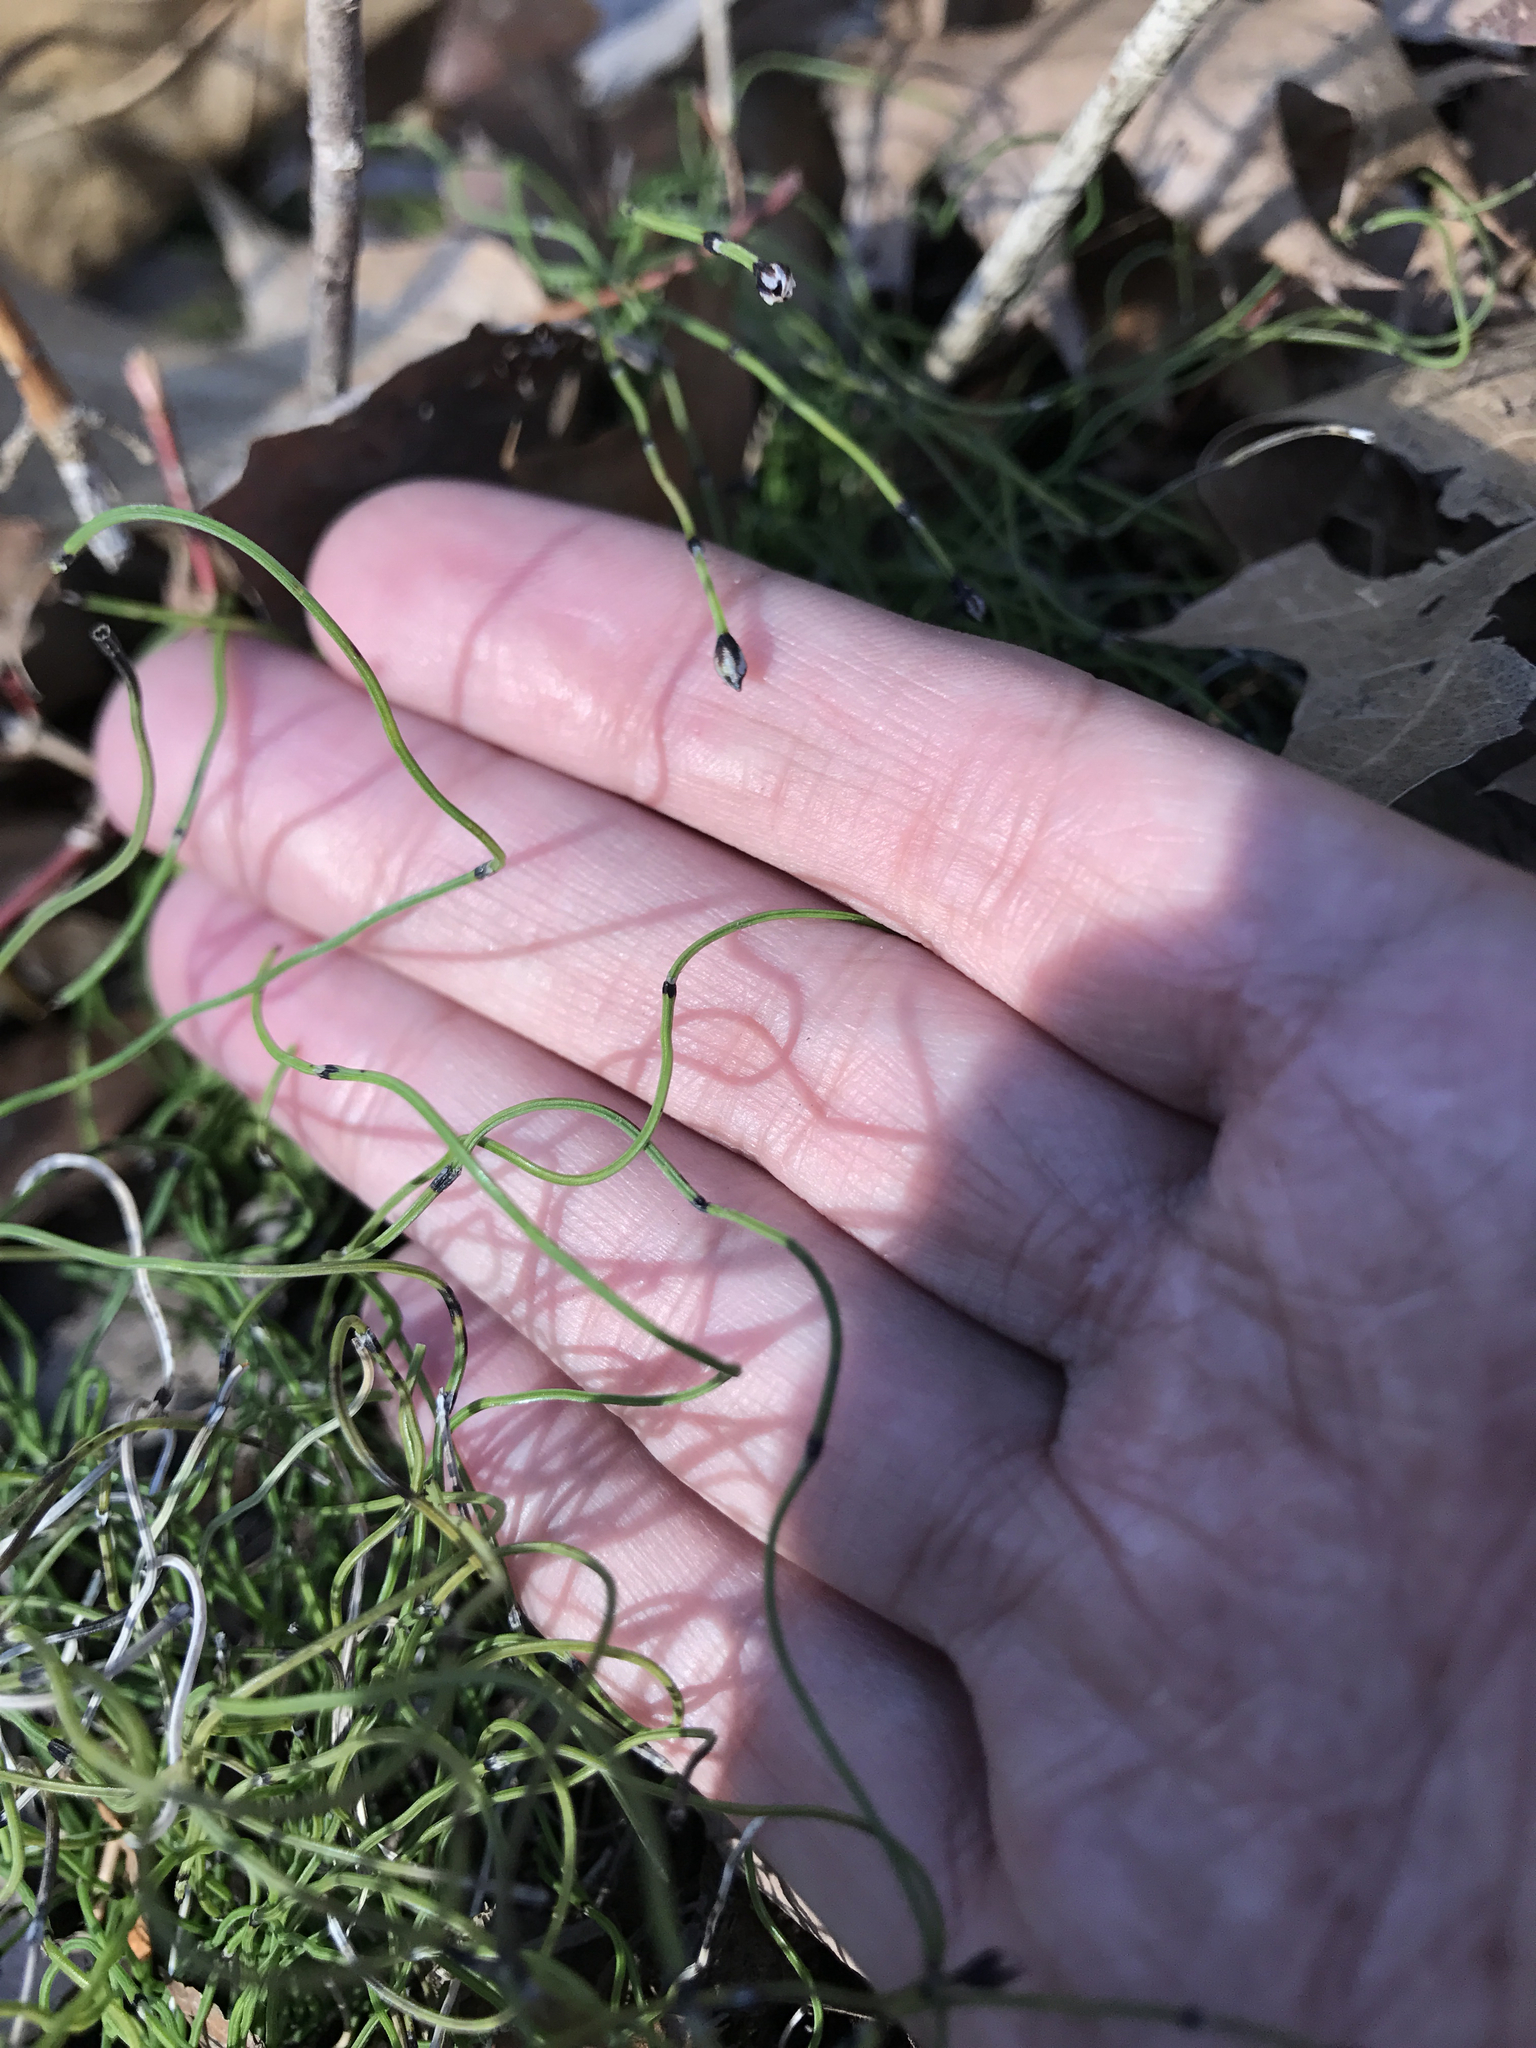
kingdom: Plantae
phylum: Tracheophyta
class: Polypodiopsida
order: Equisetales
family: Equisetaceae
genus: Equisetum
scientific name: Equisetum scirpoides
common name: Delicate horsetail
